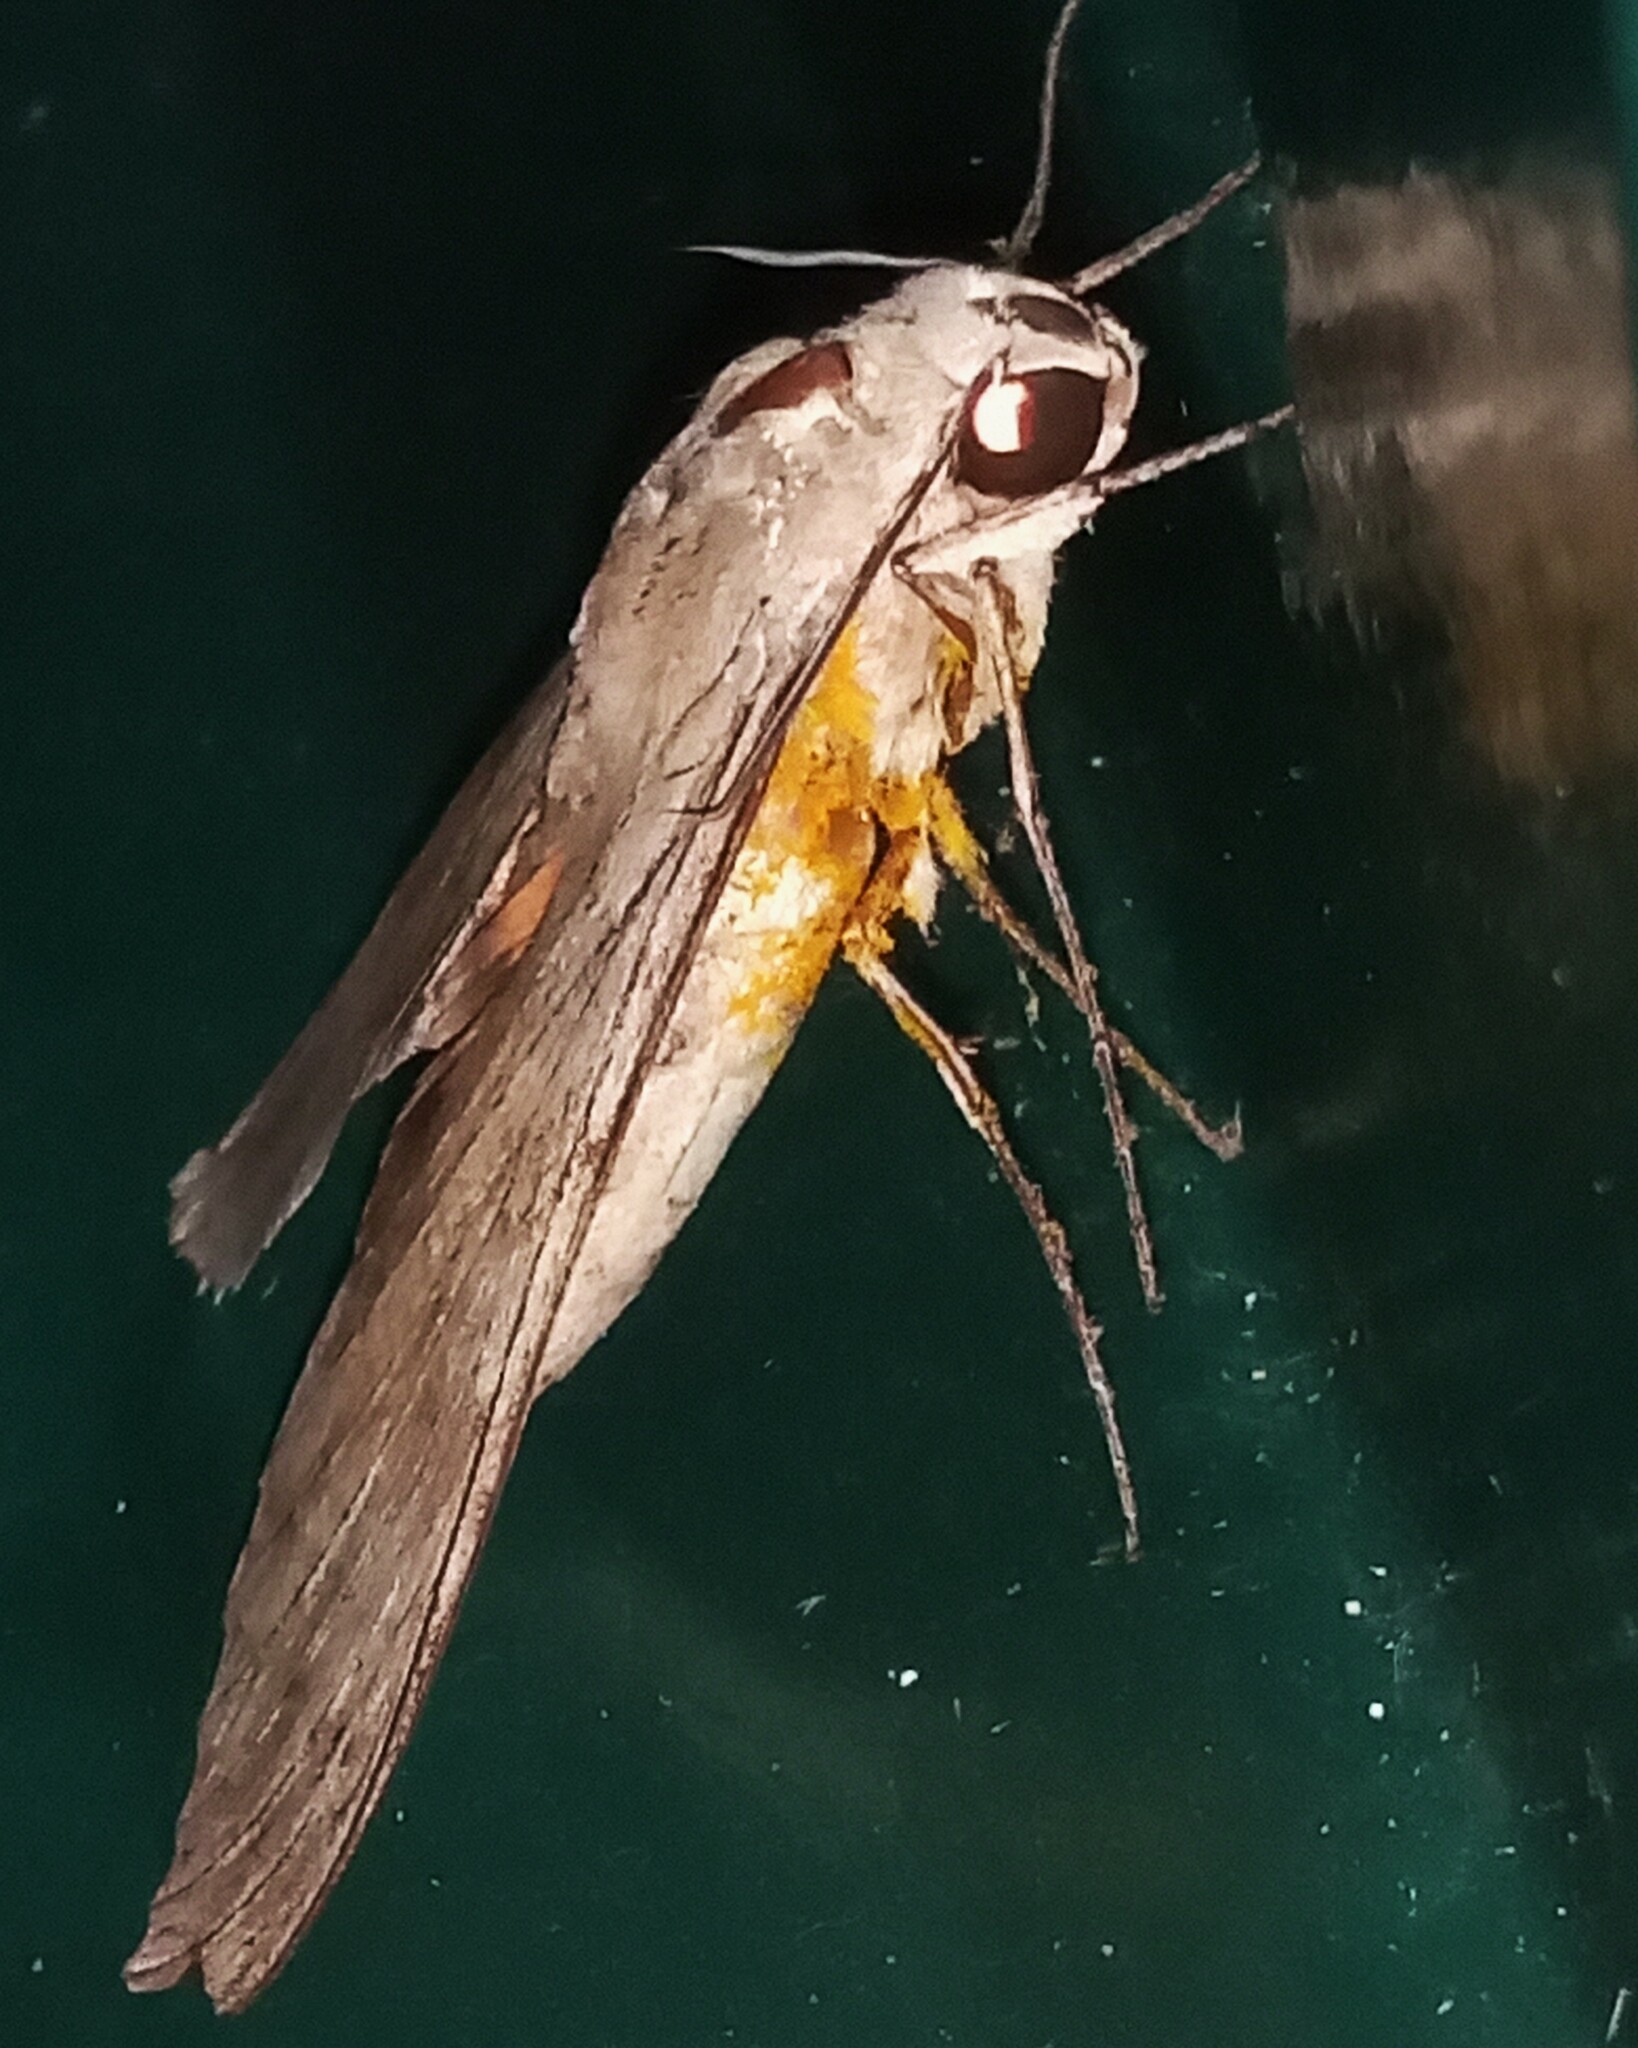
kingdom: Animalia
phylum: Arthropoda
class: Insecta
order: Lepidoptera
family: Sphingidae
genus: Erinnyis
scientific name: Erinnyis ello
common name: Ello sphinx
